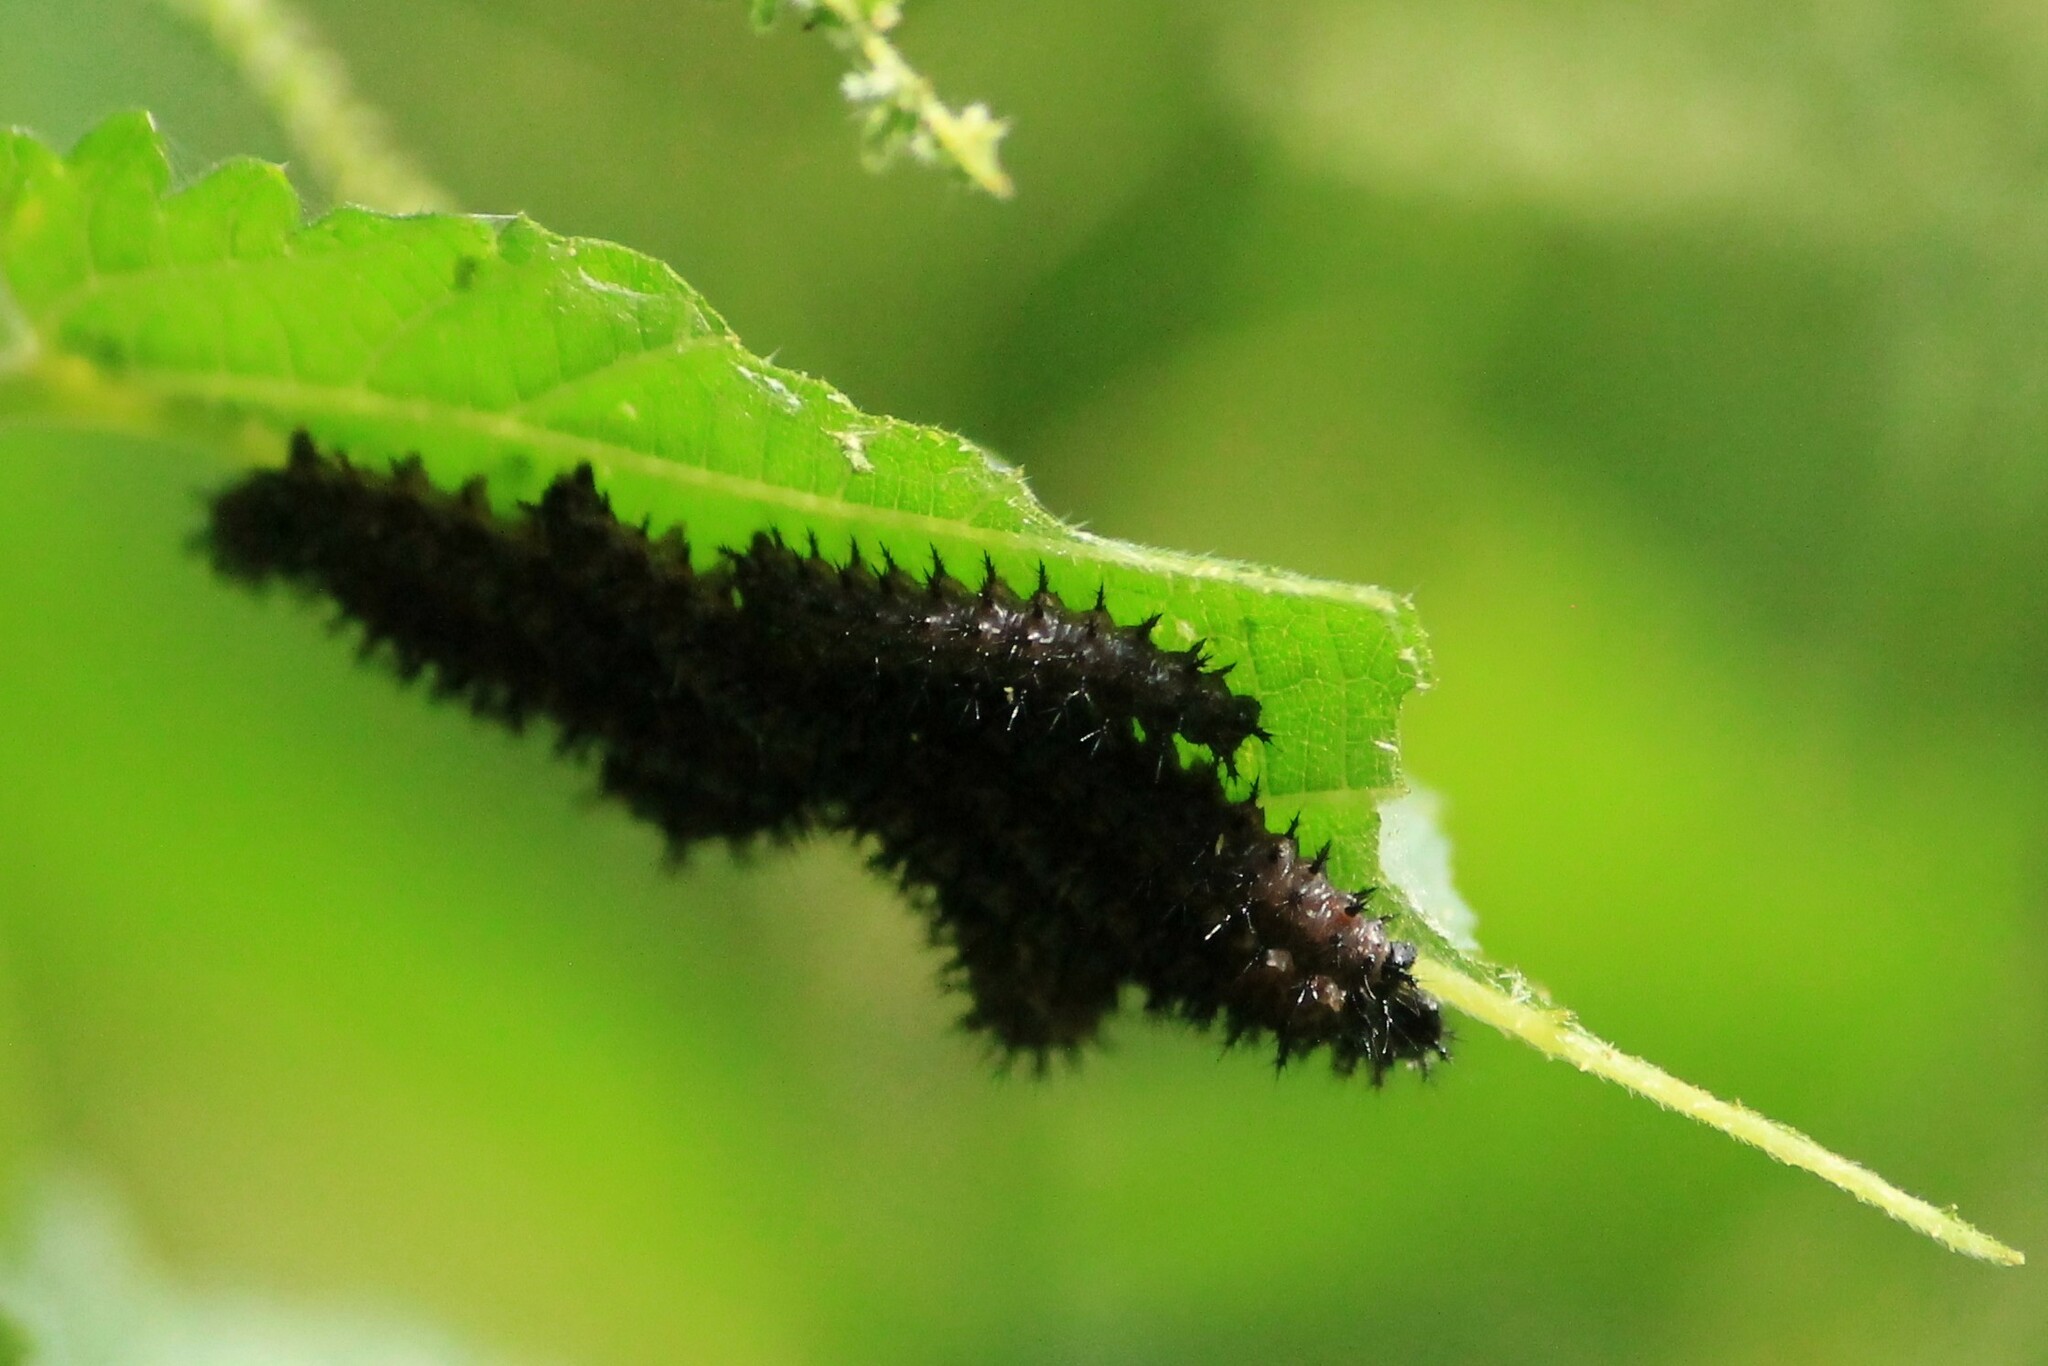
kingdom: Animalia
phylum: Arthropoda
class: Insecta
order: Lepidoptera
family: Nymphalidae
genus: Araschnia
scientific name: Araschnia levana
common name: Map butterfly
